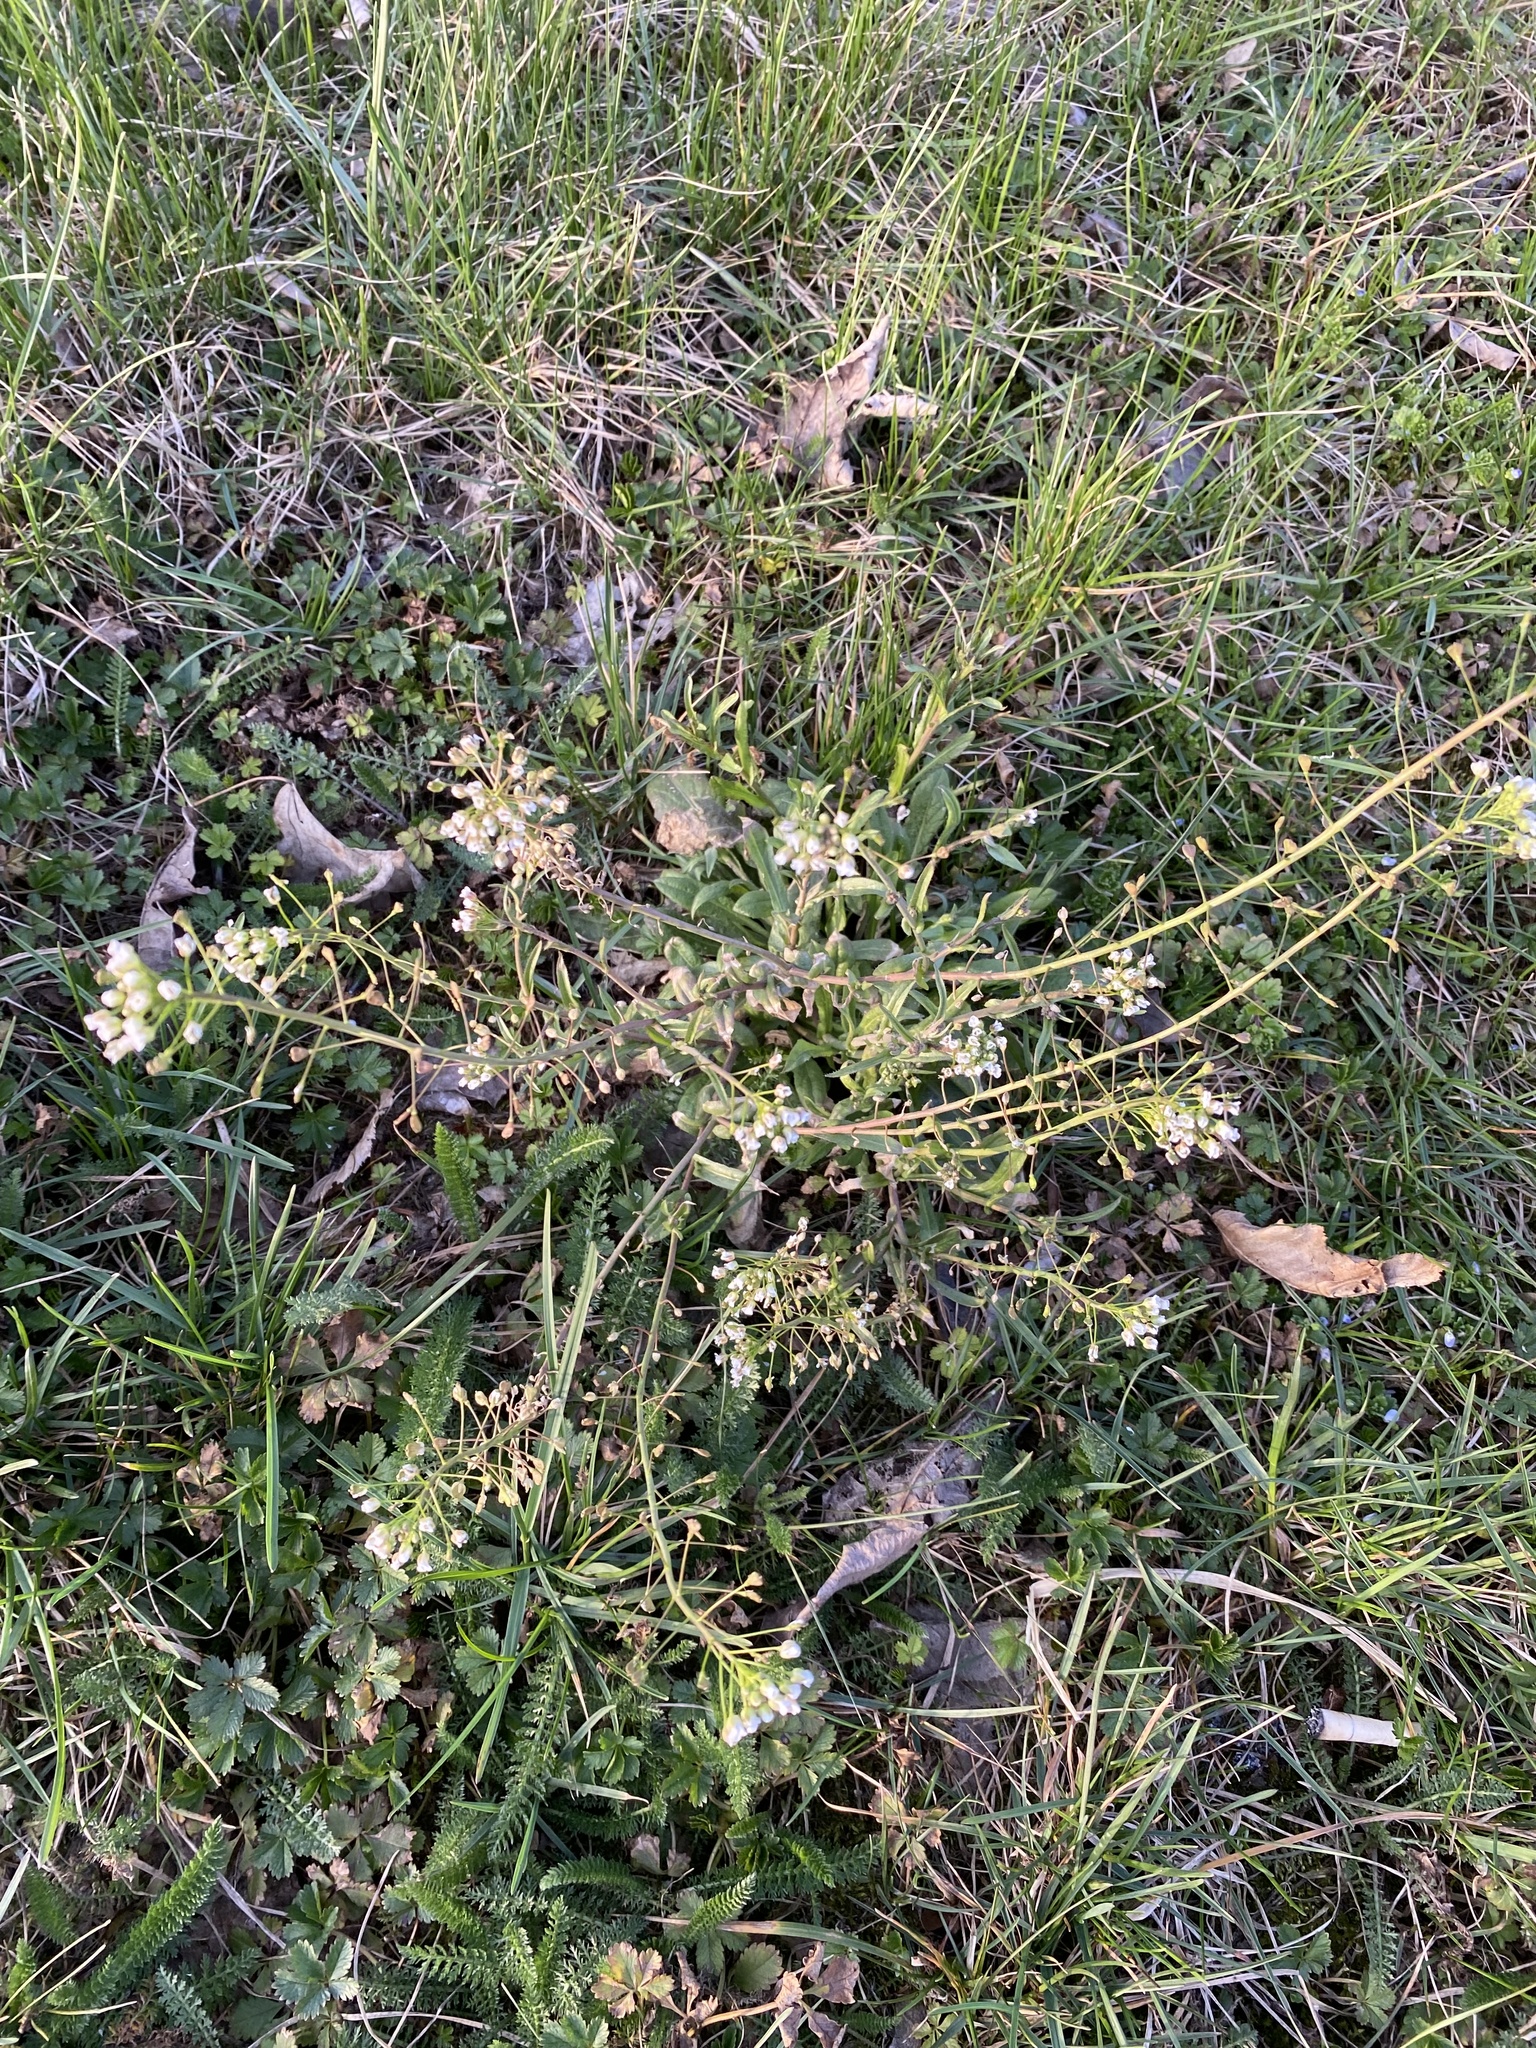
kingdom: Plantae
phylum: Tracheophyta
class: Magnoliopsida
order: Brassicales
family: Brassicaceae
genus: Capsella
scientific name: Capsella bursa-pastoris
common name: Shepherd's purse
